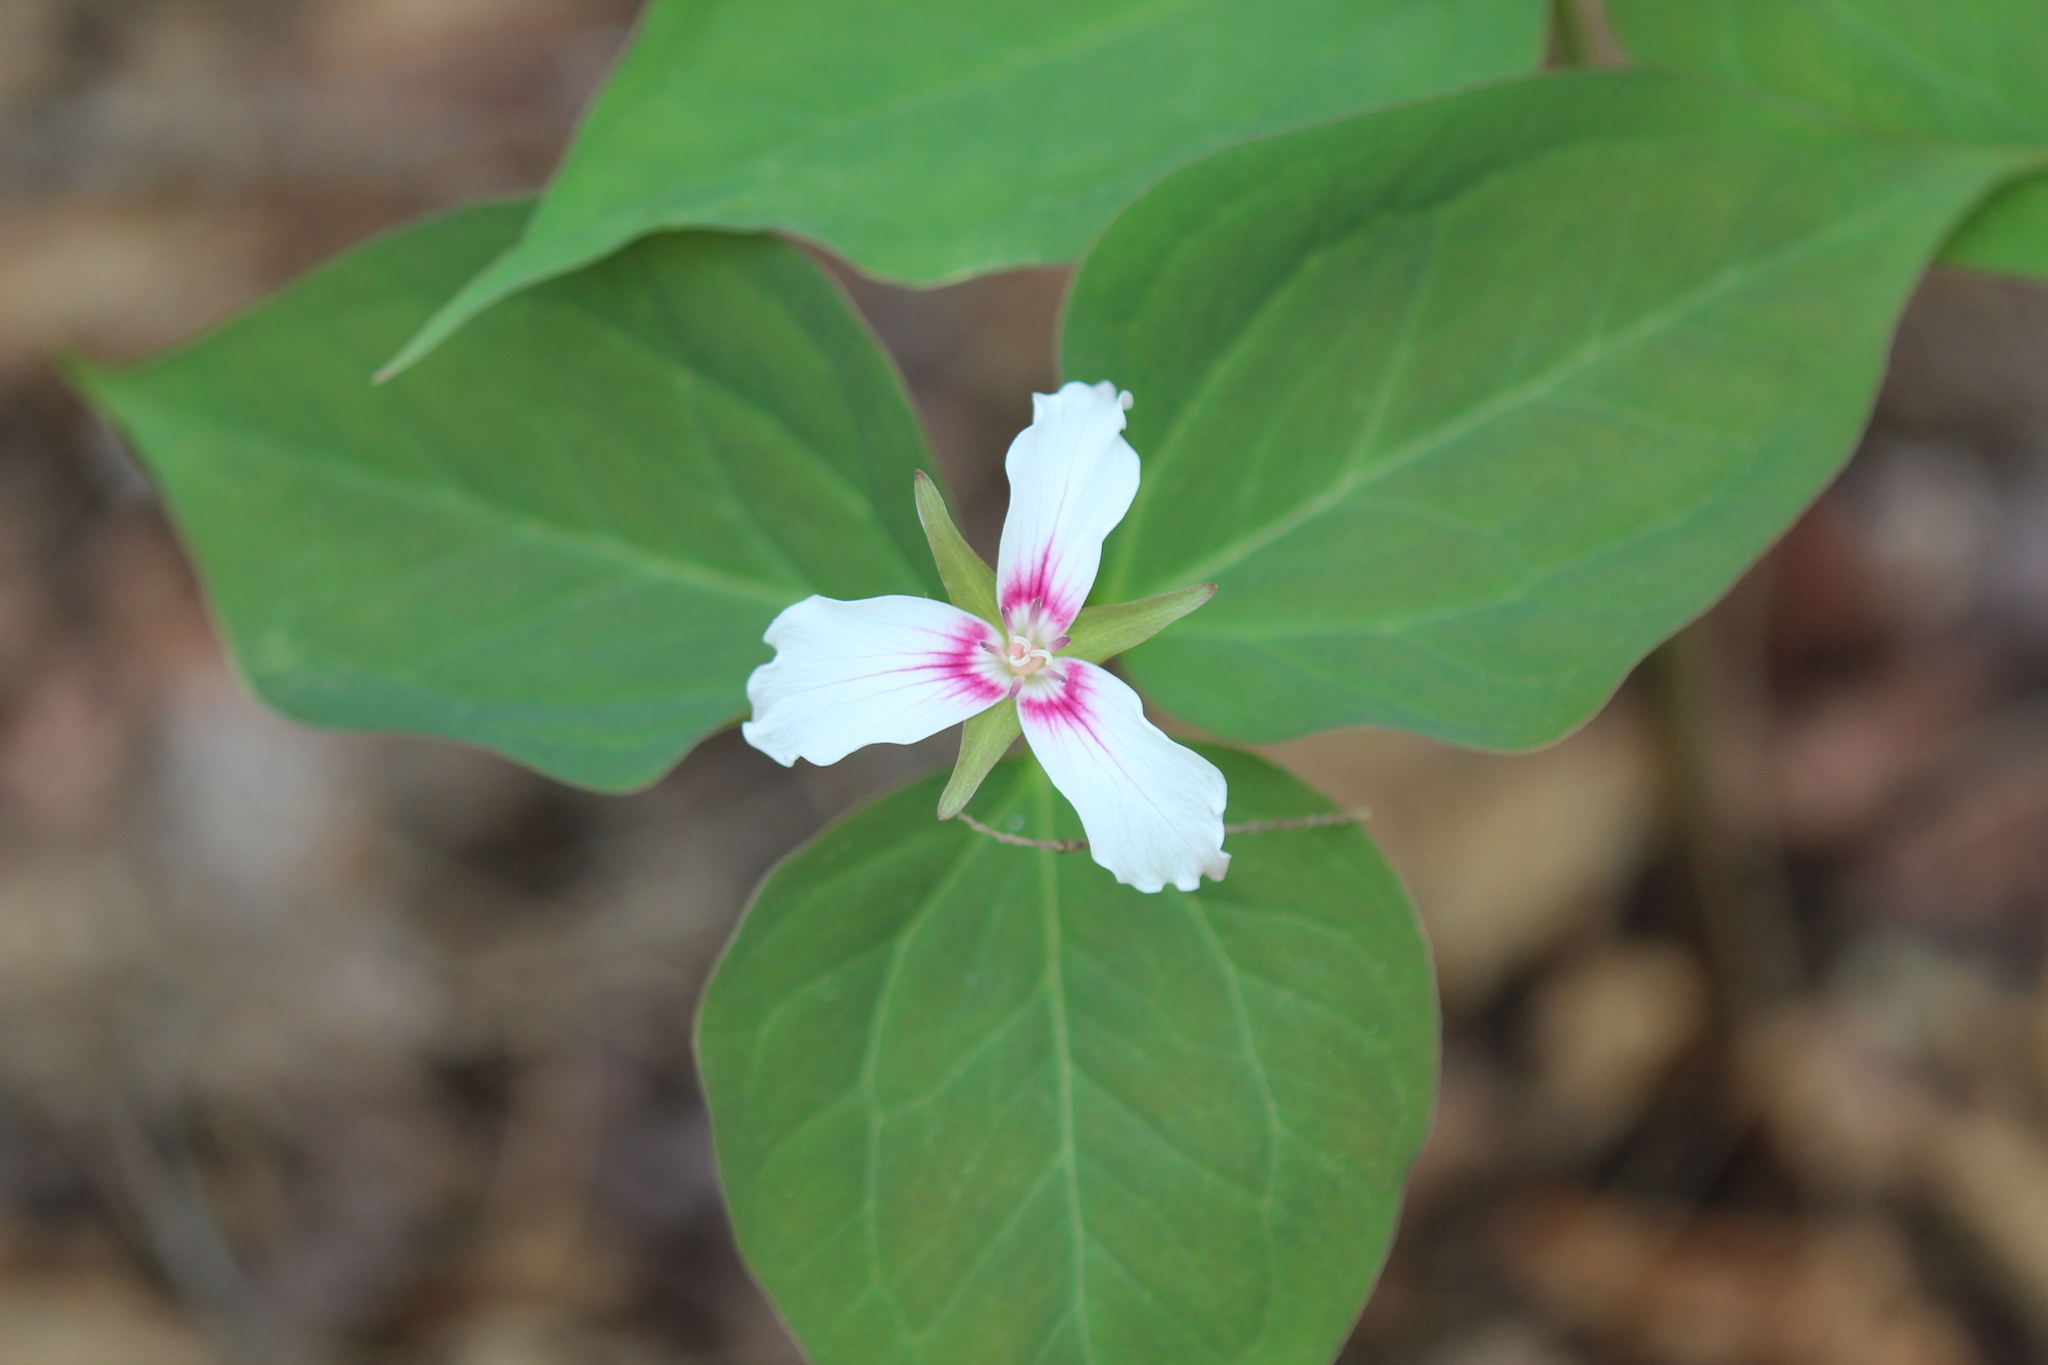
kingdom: Plantae
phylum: Tracheophyta
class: Liliopsida
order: Liliales
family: Melanthiaceae
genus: Trillium
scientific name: Trillium undulatum
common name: Paint trillium
